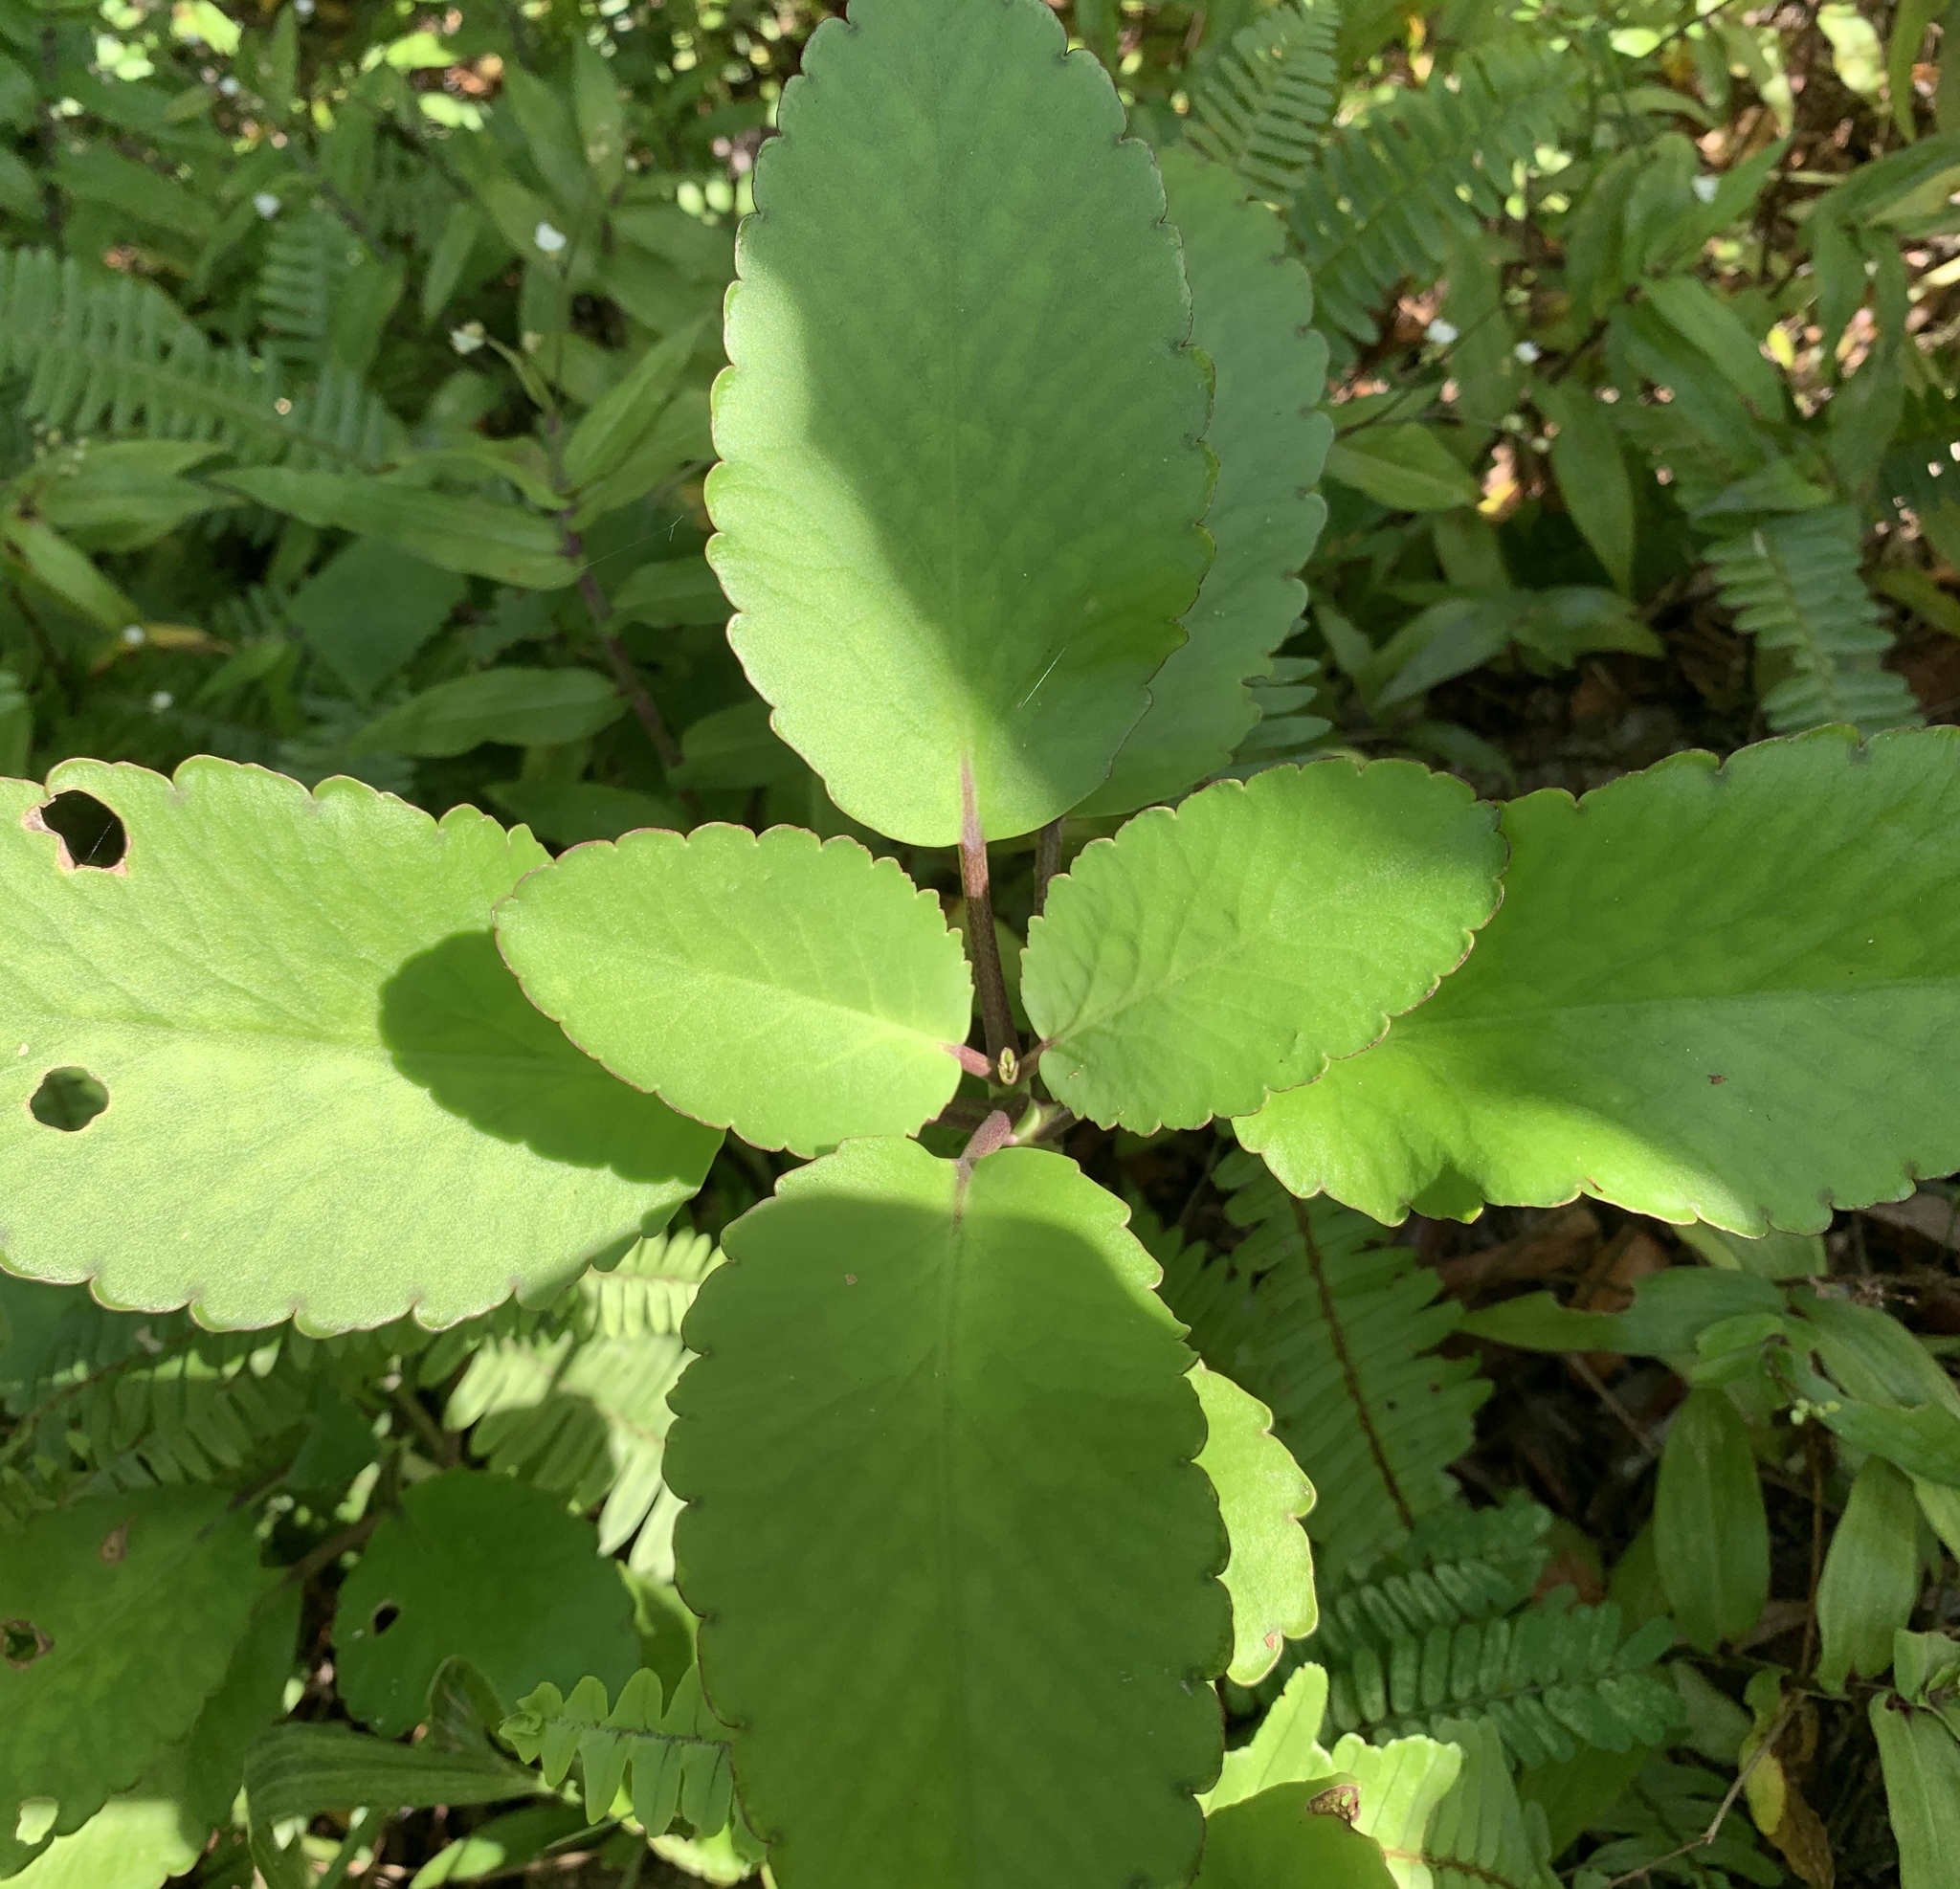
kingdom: Plantae
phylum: Tracheophyta
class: Magnoliopsida
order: Saxifragales
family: Crassulaceae
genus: Kalanchoe
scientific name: Kalanchoe pinnata
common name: Cathedral bells
